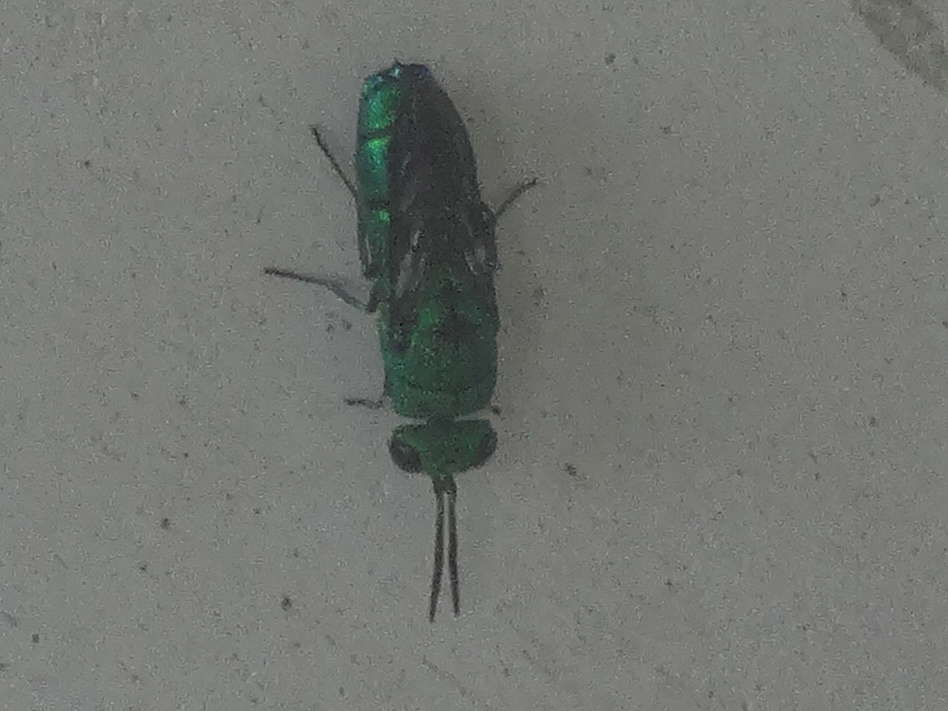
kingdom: Animalia
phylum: Arthropoda
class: Insecta
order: Hymenoptera
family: Chrysididae
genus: Caenochrysis
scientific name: Caenochrysis
